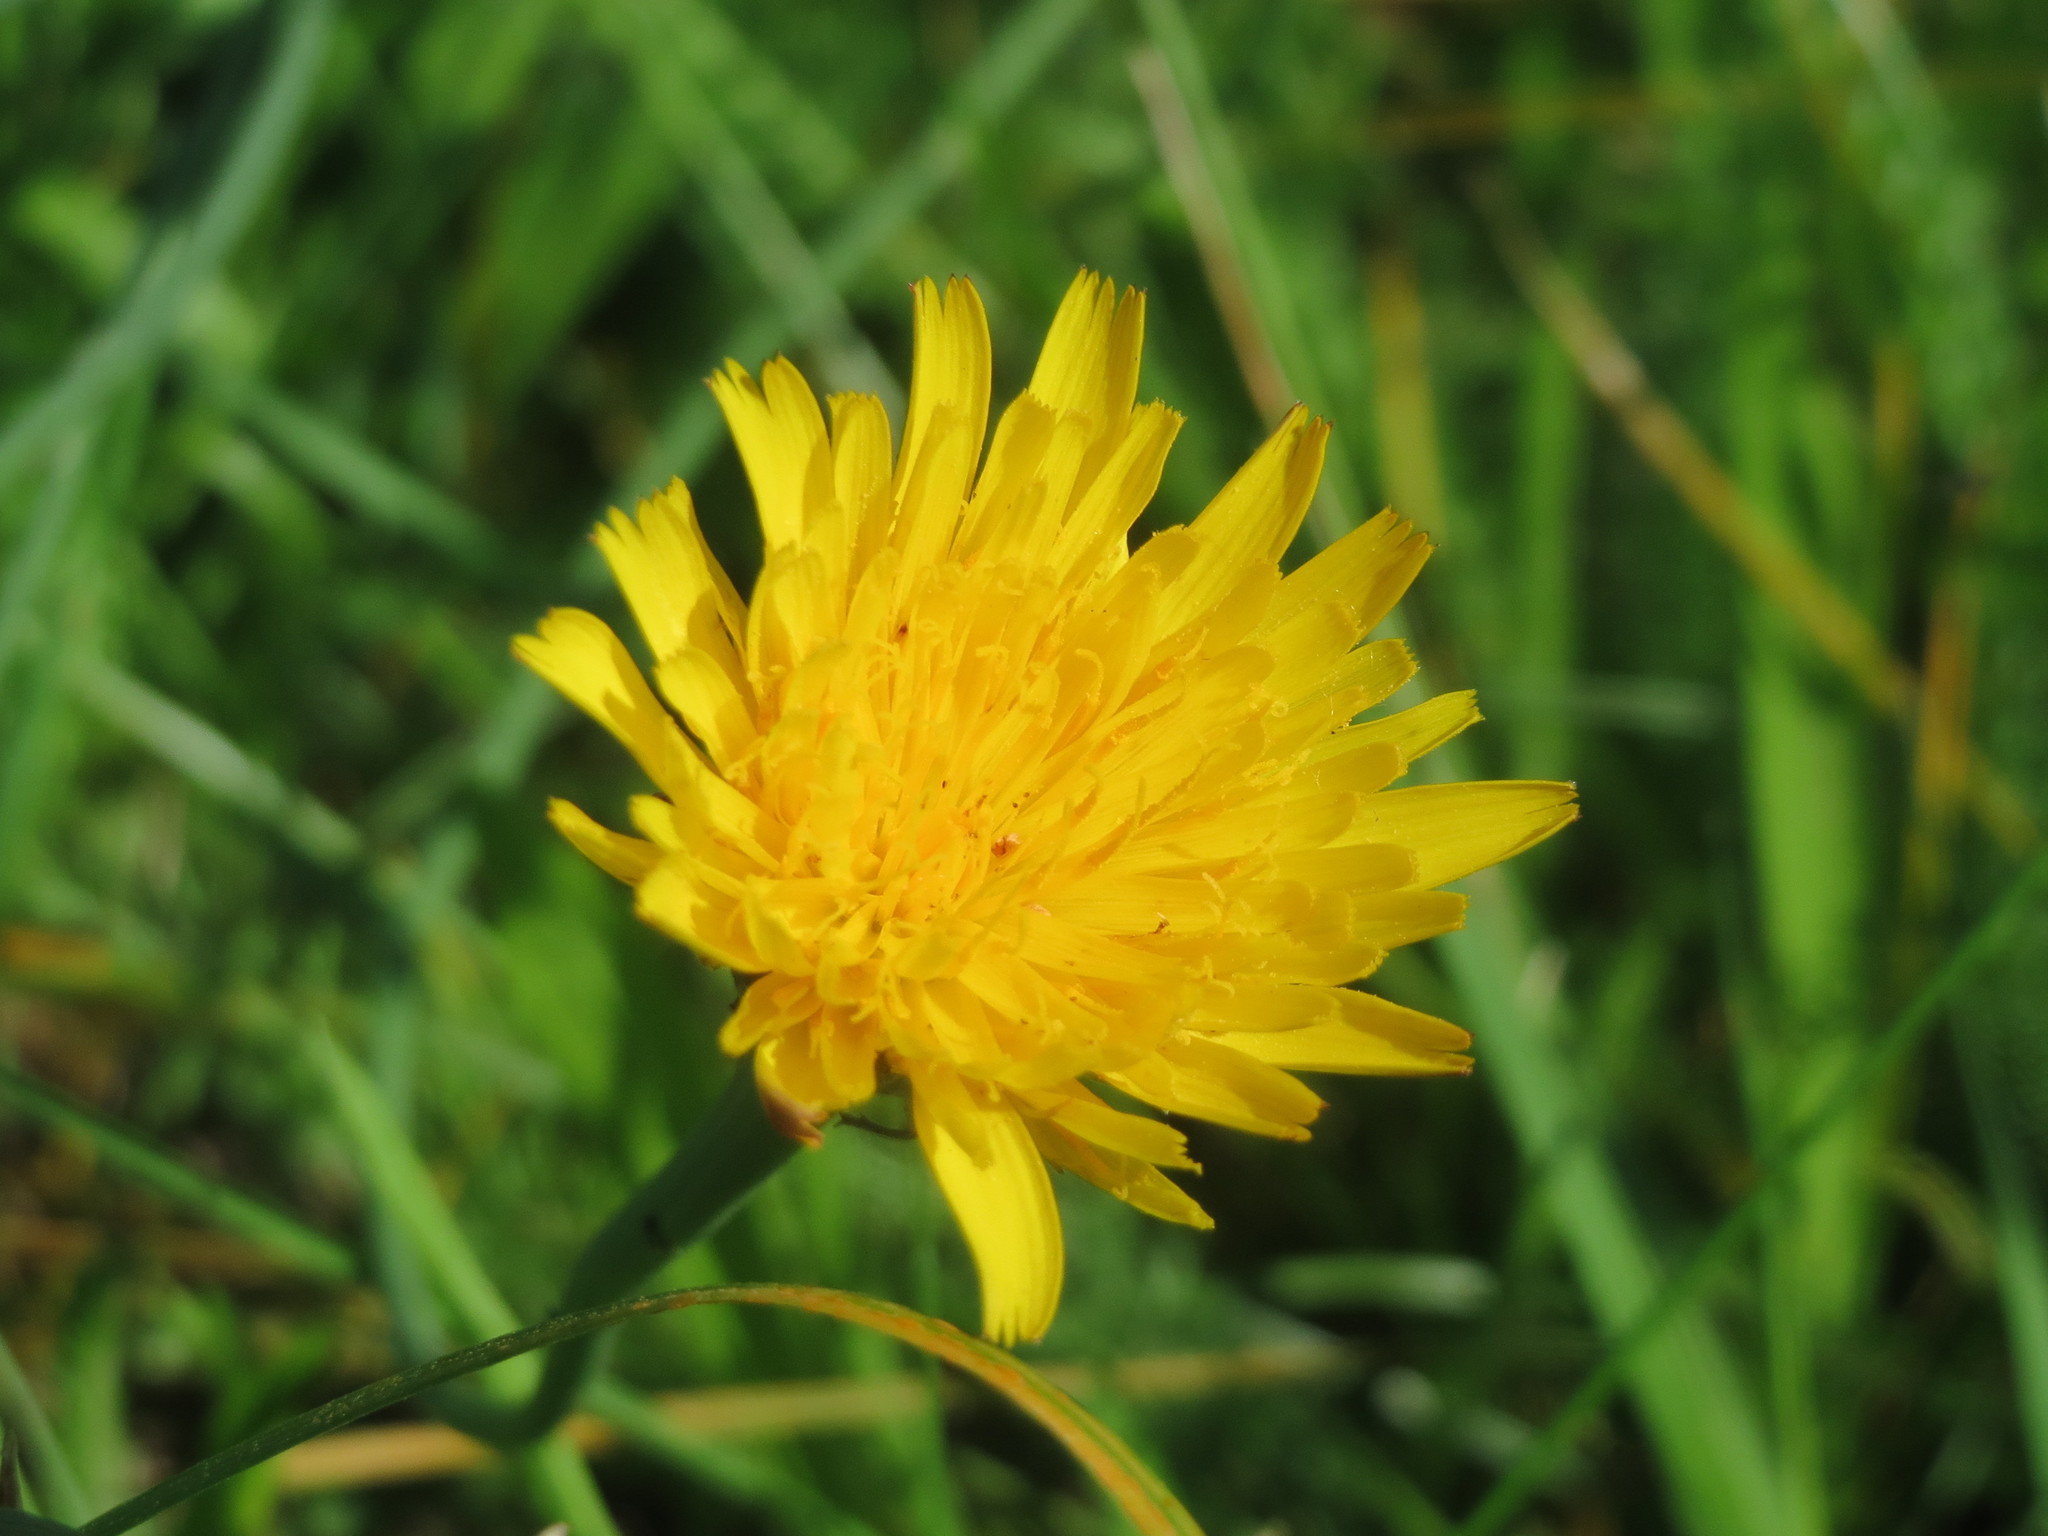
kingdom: Plantae
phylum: Tracheophyta
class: Magnoliopsida
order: Asterales
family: Asteraceae
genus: Hypochaeris
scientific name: Hypochaeris radicata
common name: Flatweed
